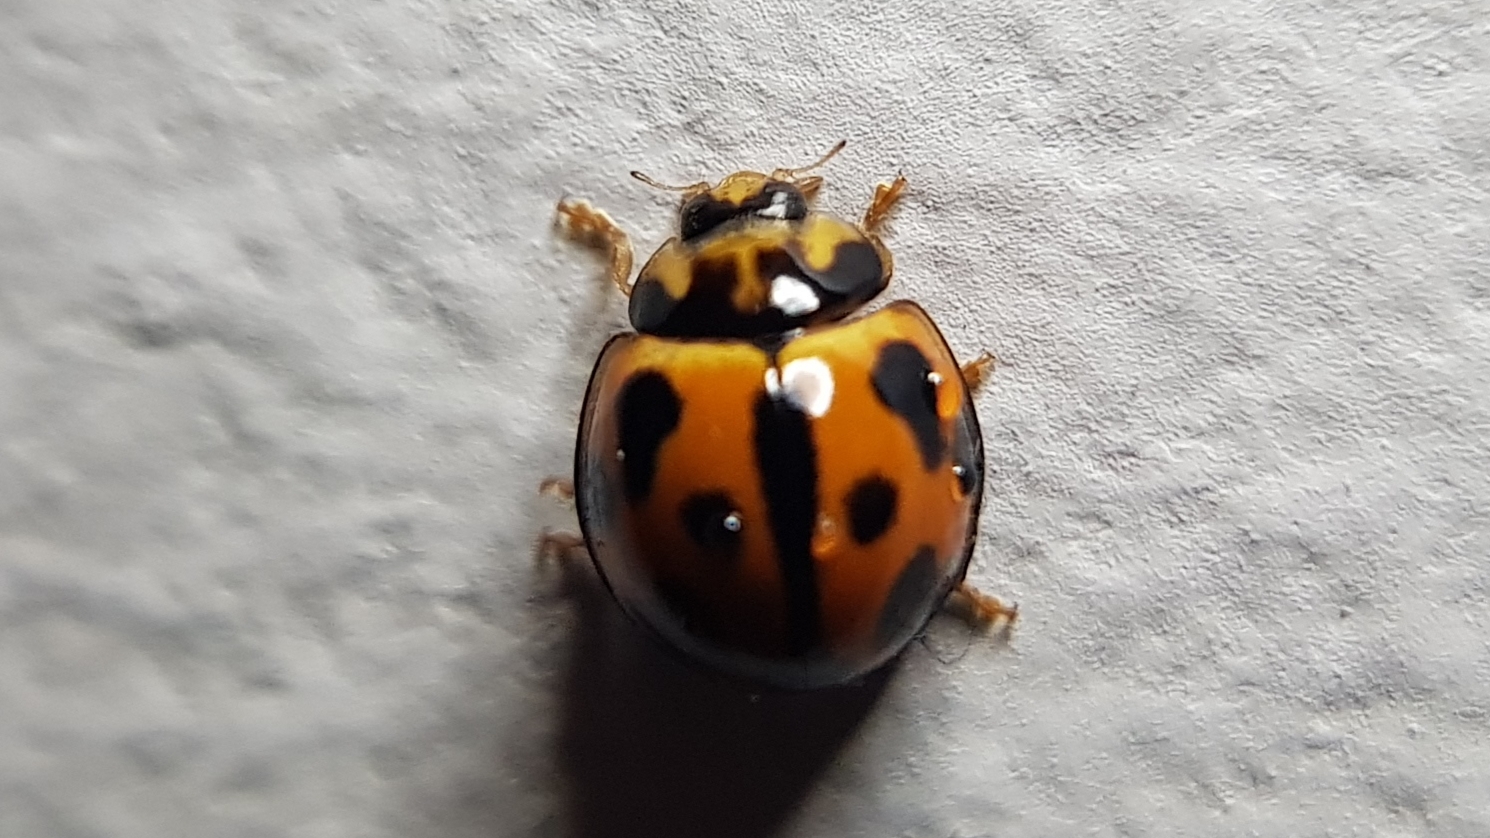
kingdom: Animalia
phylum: Arthropoda
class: Insecta
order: Coleoptera
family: Coccinellidae
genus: Coelophora
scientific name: Coelophora inaequalis
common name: Common australian lady beetle
